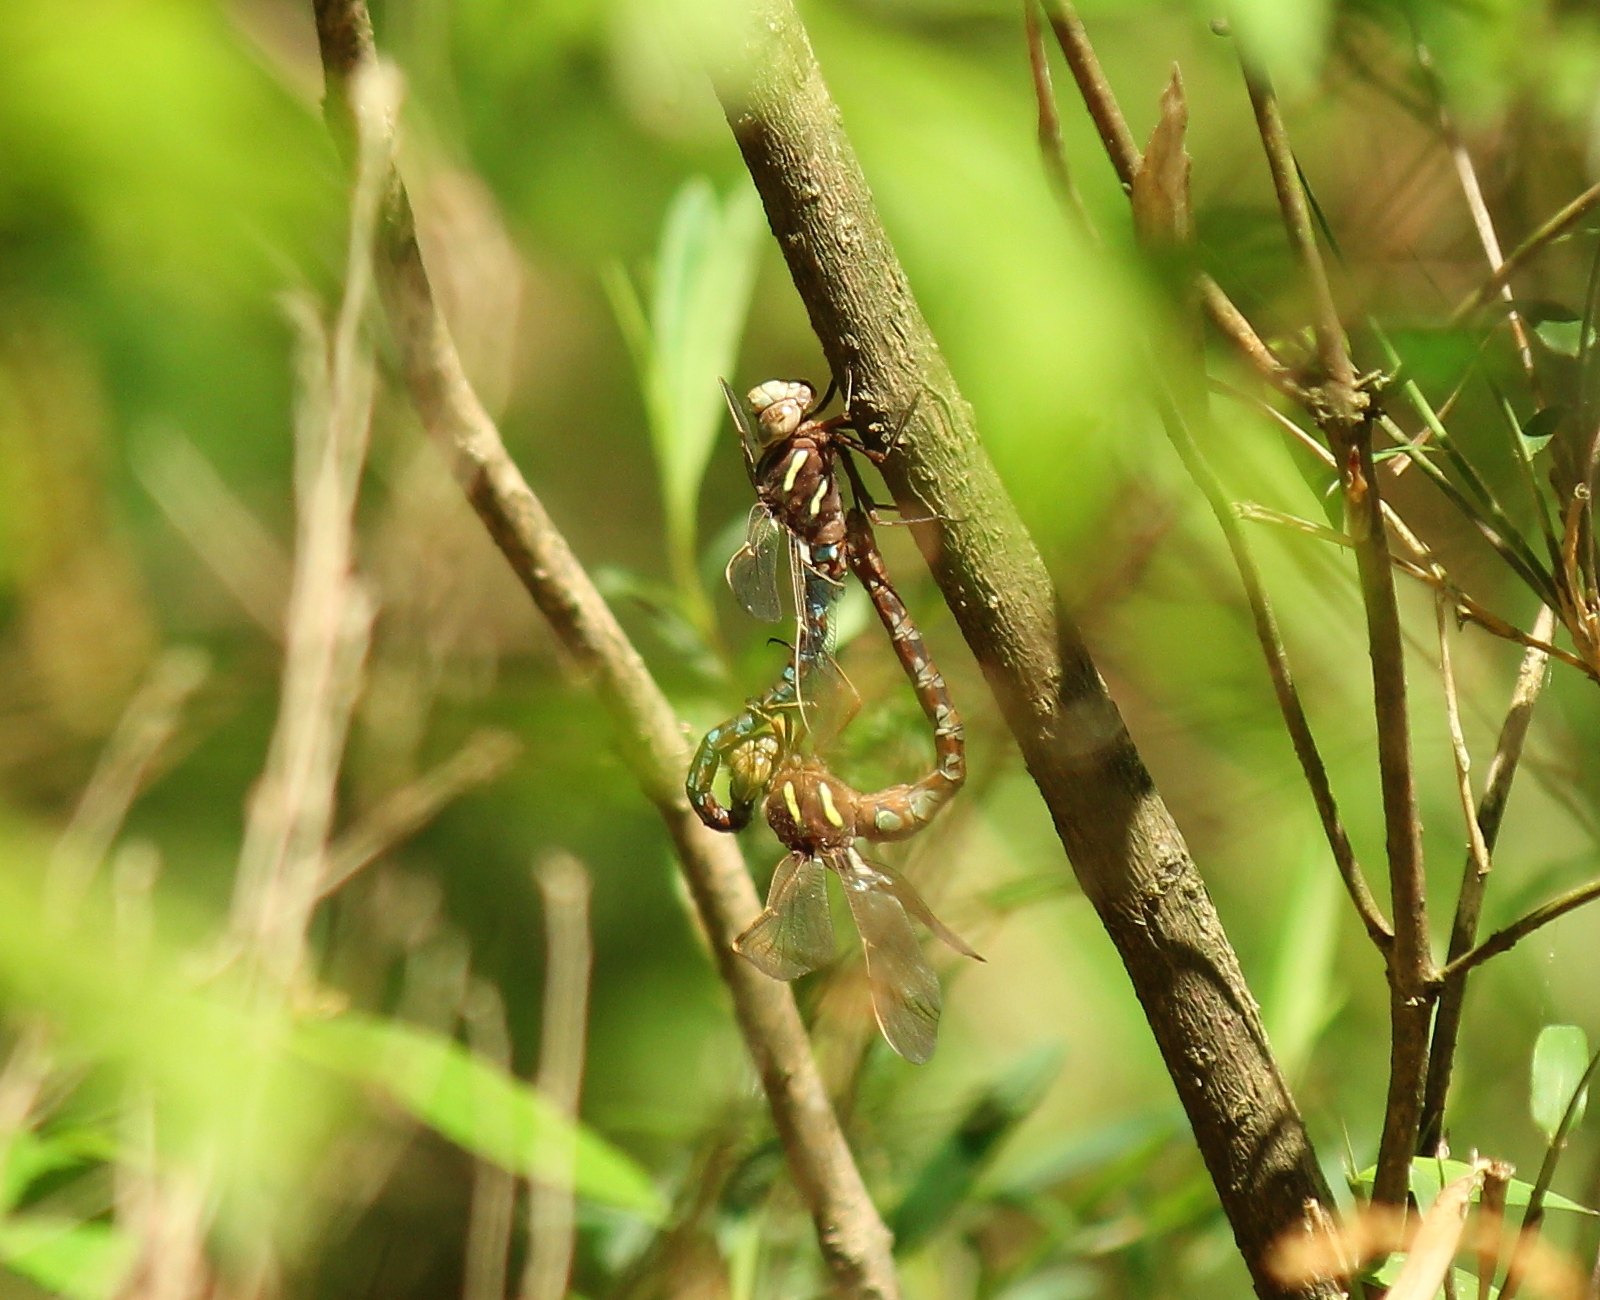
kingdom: Animalia
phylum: Arthropoda
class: Insecta
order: Odonata
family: Aeshnidae
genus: Basiaeschna
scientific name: Basiaeschna janata
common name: Springtime darner
